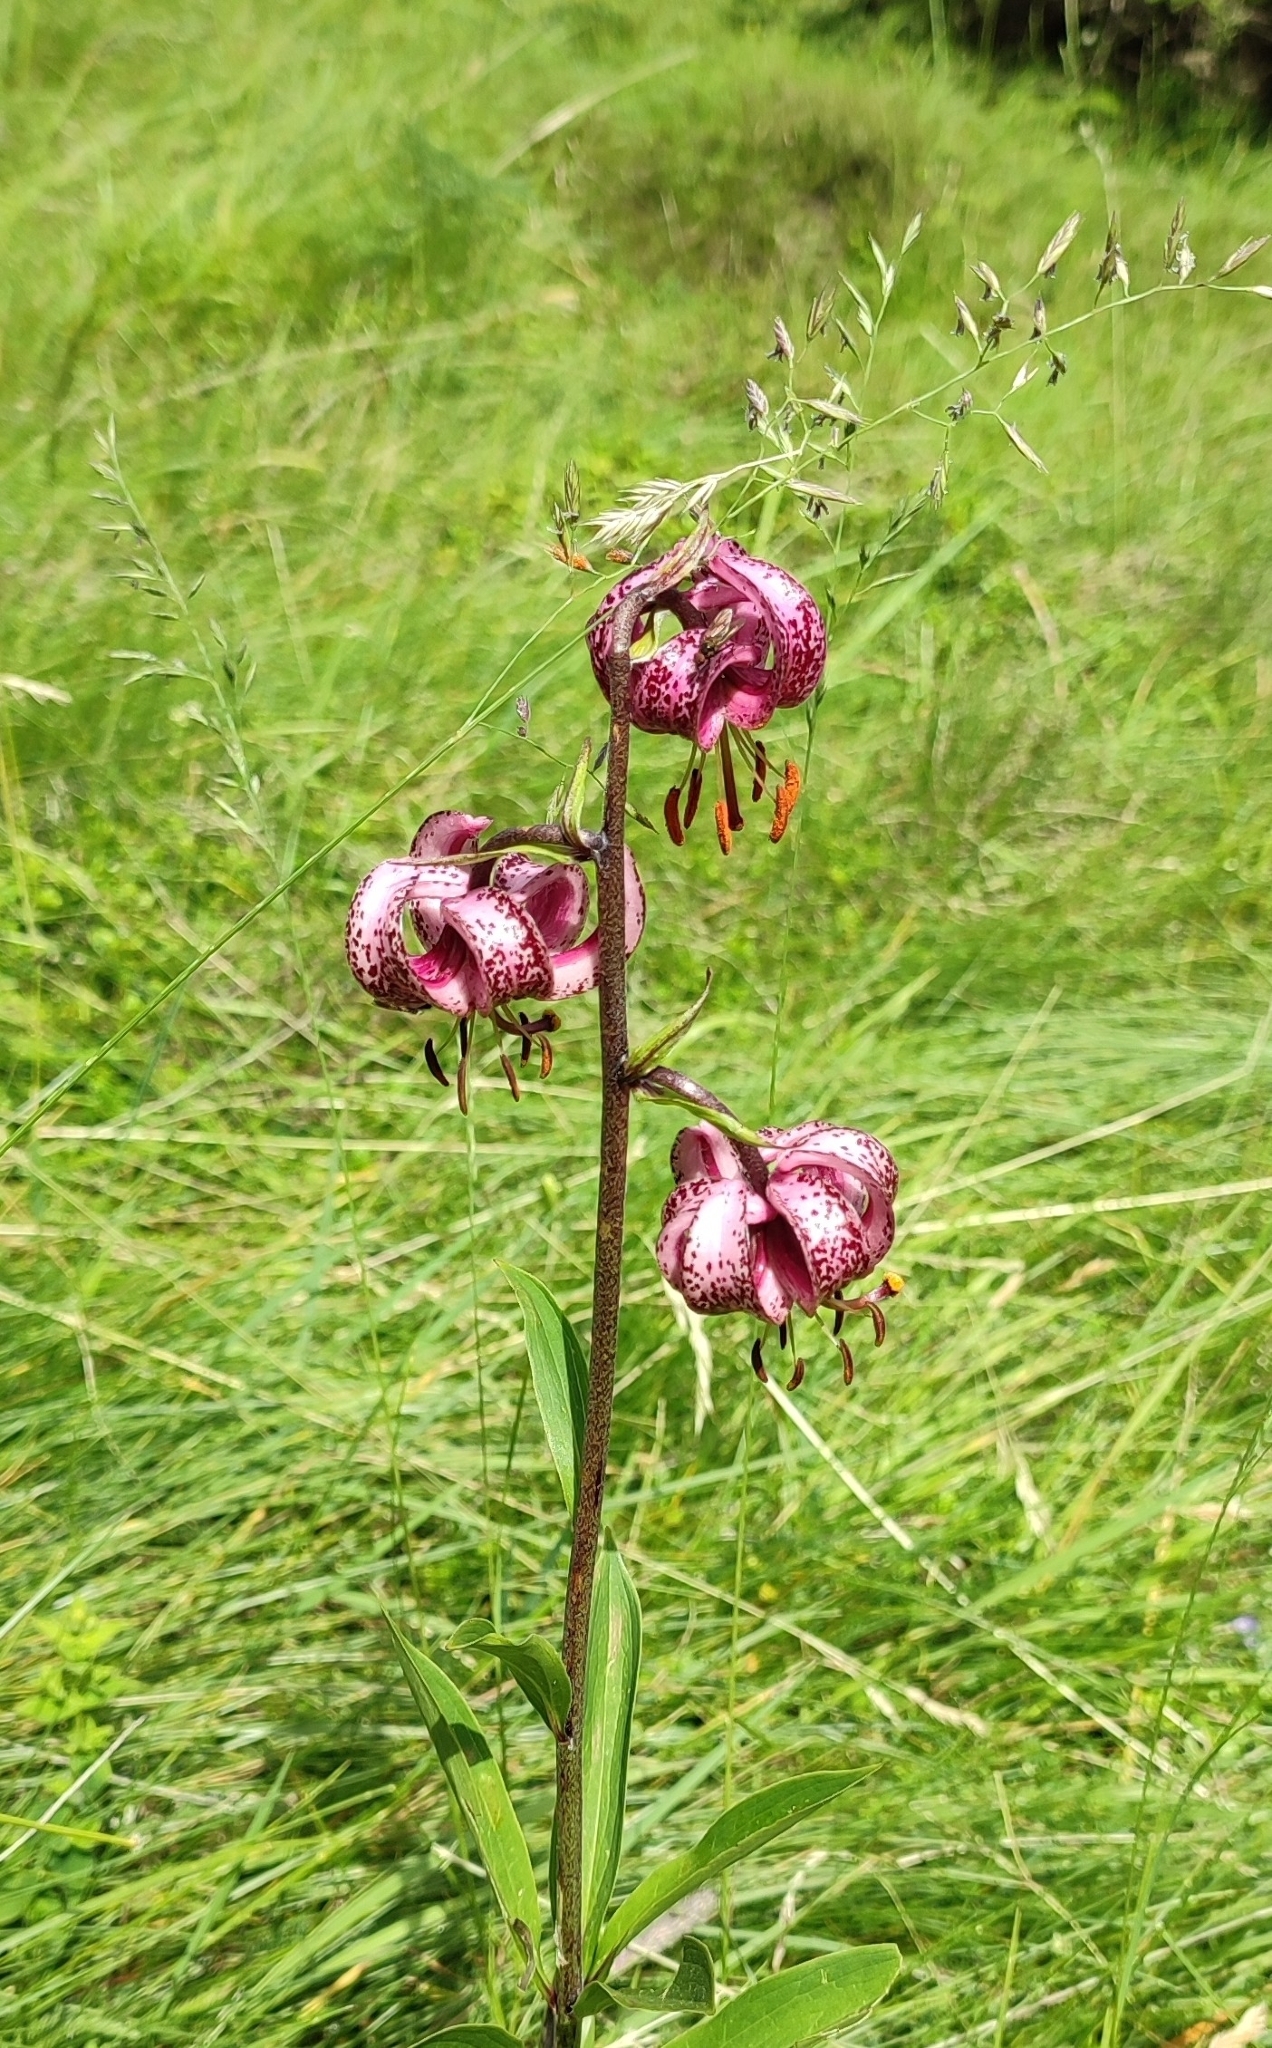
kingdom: Plantae
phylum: Tracheophyta
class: Liliopsida
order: Liliales
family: Liliaceae
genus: Lilium
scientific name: Lilium martagon
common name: Martagon lily
